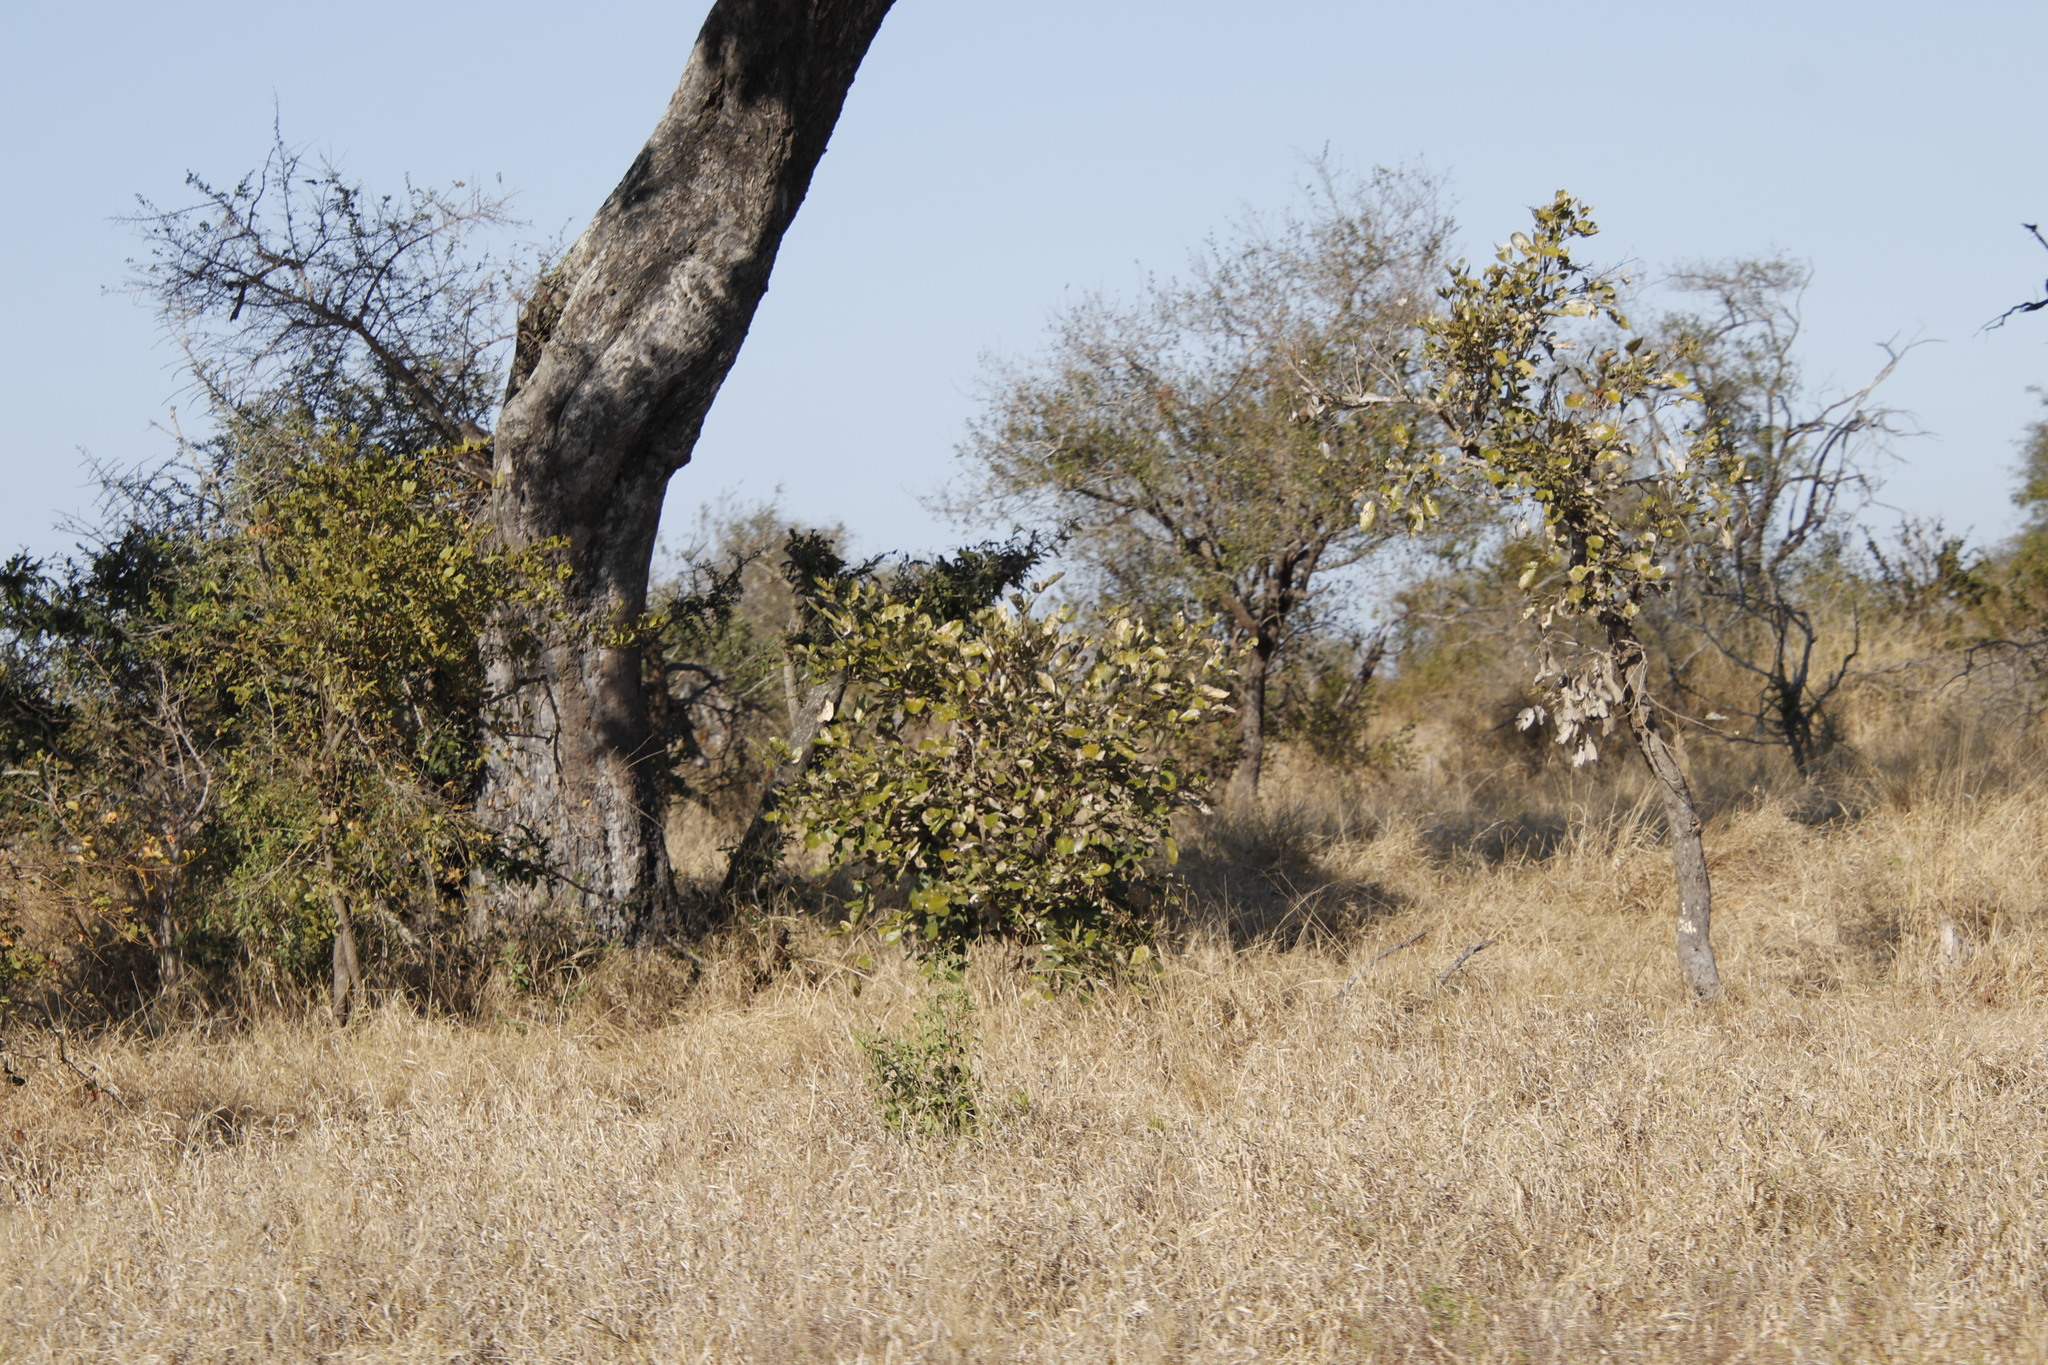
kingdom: Plantae
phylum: Tracheophyta
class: Magnoliopsida
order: Fabales
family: Fabaceae
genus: Philenoptera
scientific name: Philenoptera violacea
